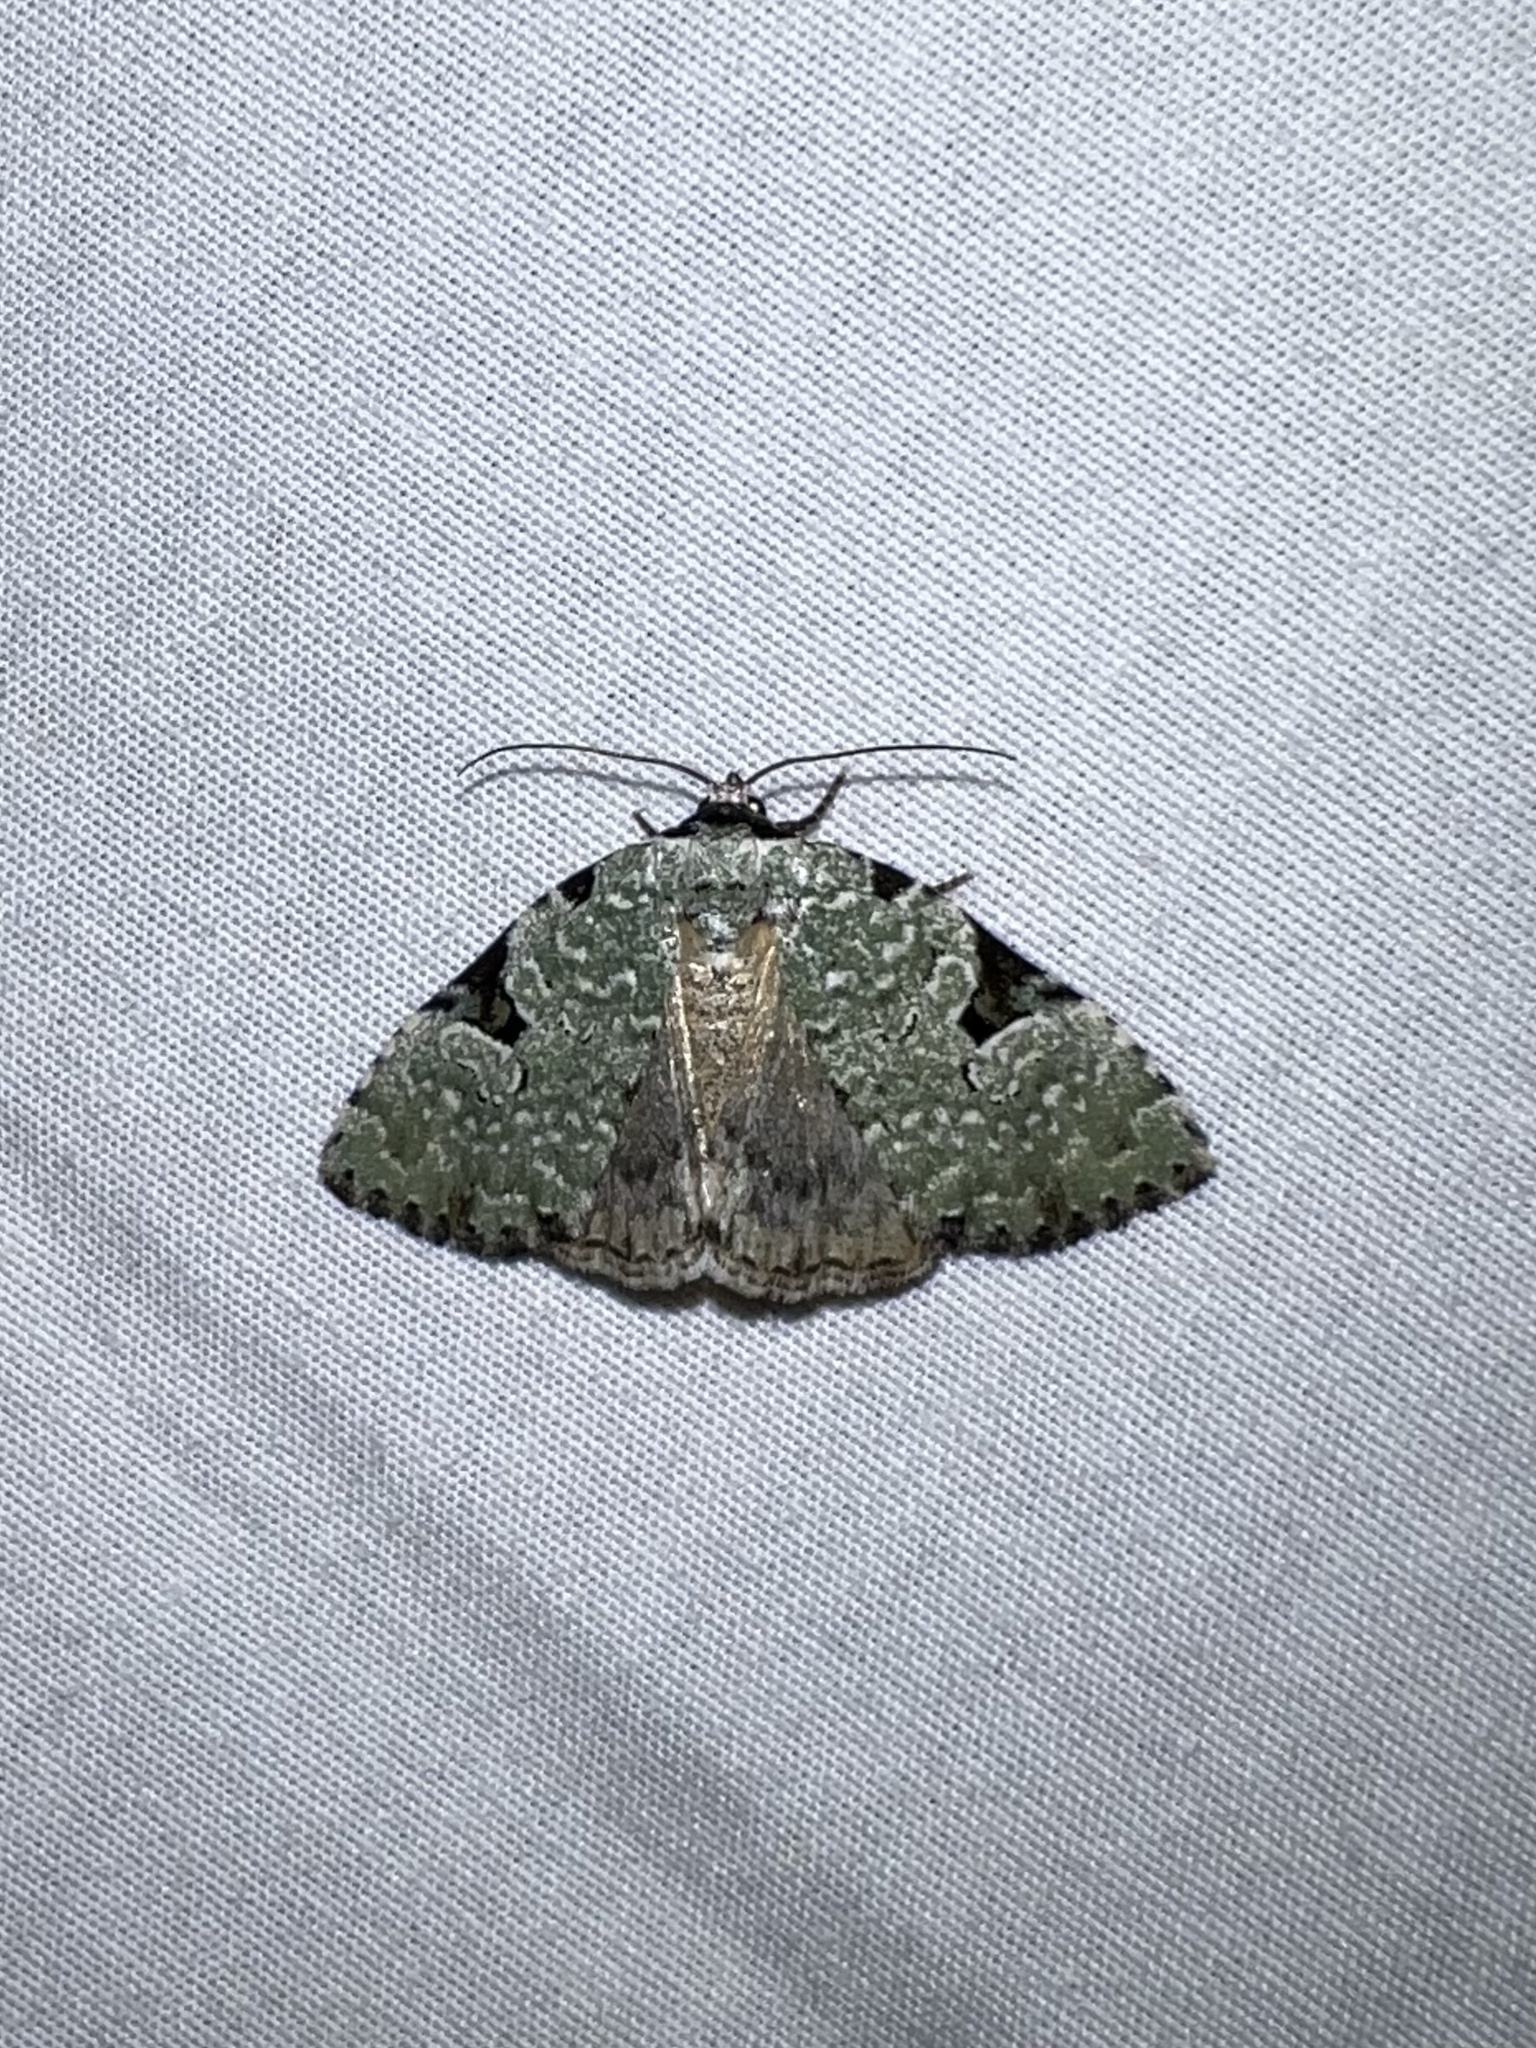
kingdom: Animalia
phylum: Arthropoda
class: Insecta
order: Lepidoptera
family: Noctuidae
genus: Leuconycta
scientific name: Leuconycta diphteroides
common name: Green leuconycta moth
